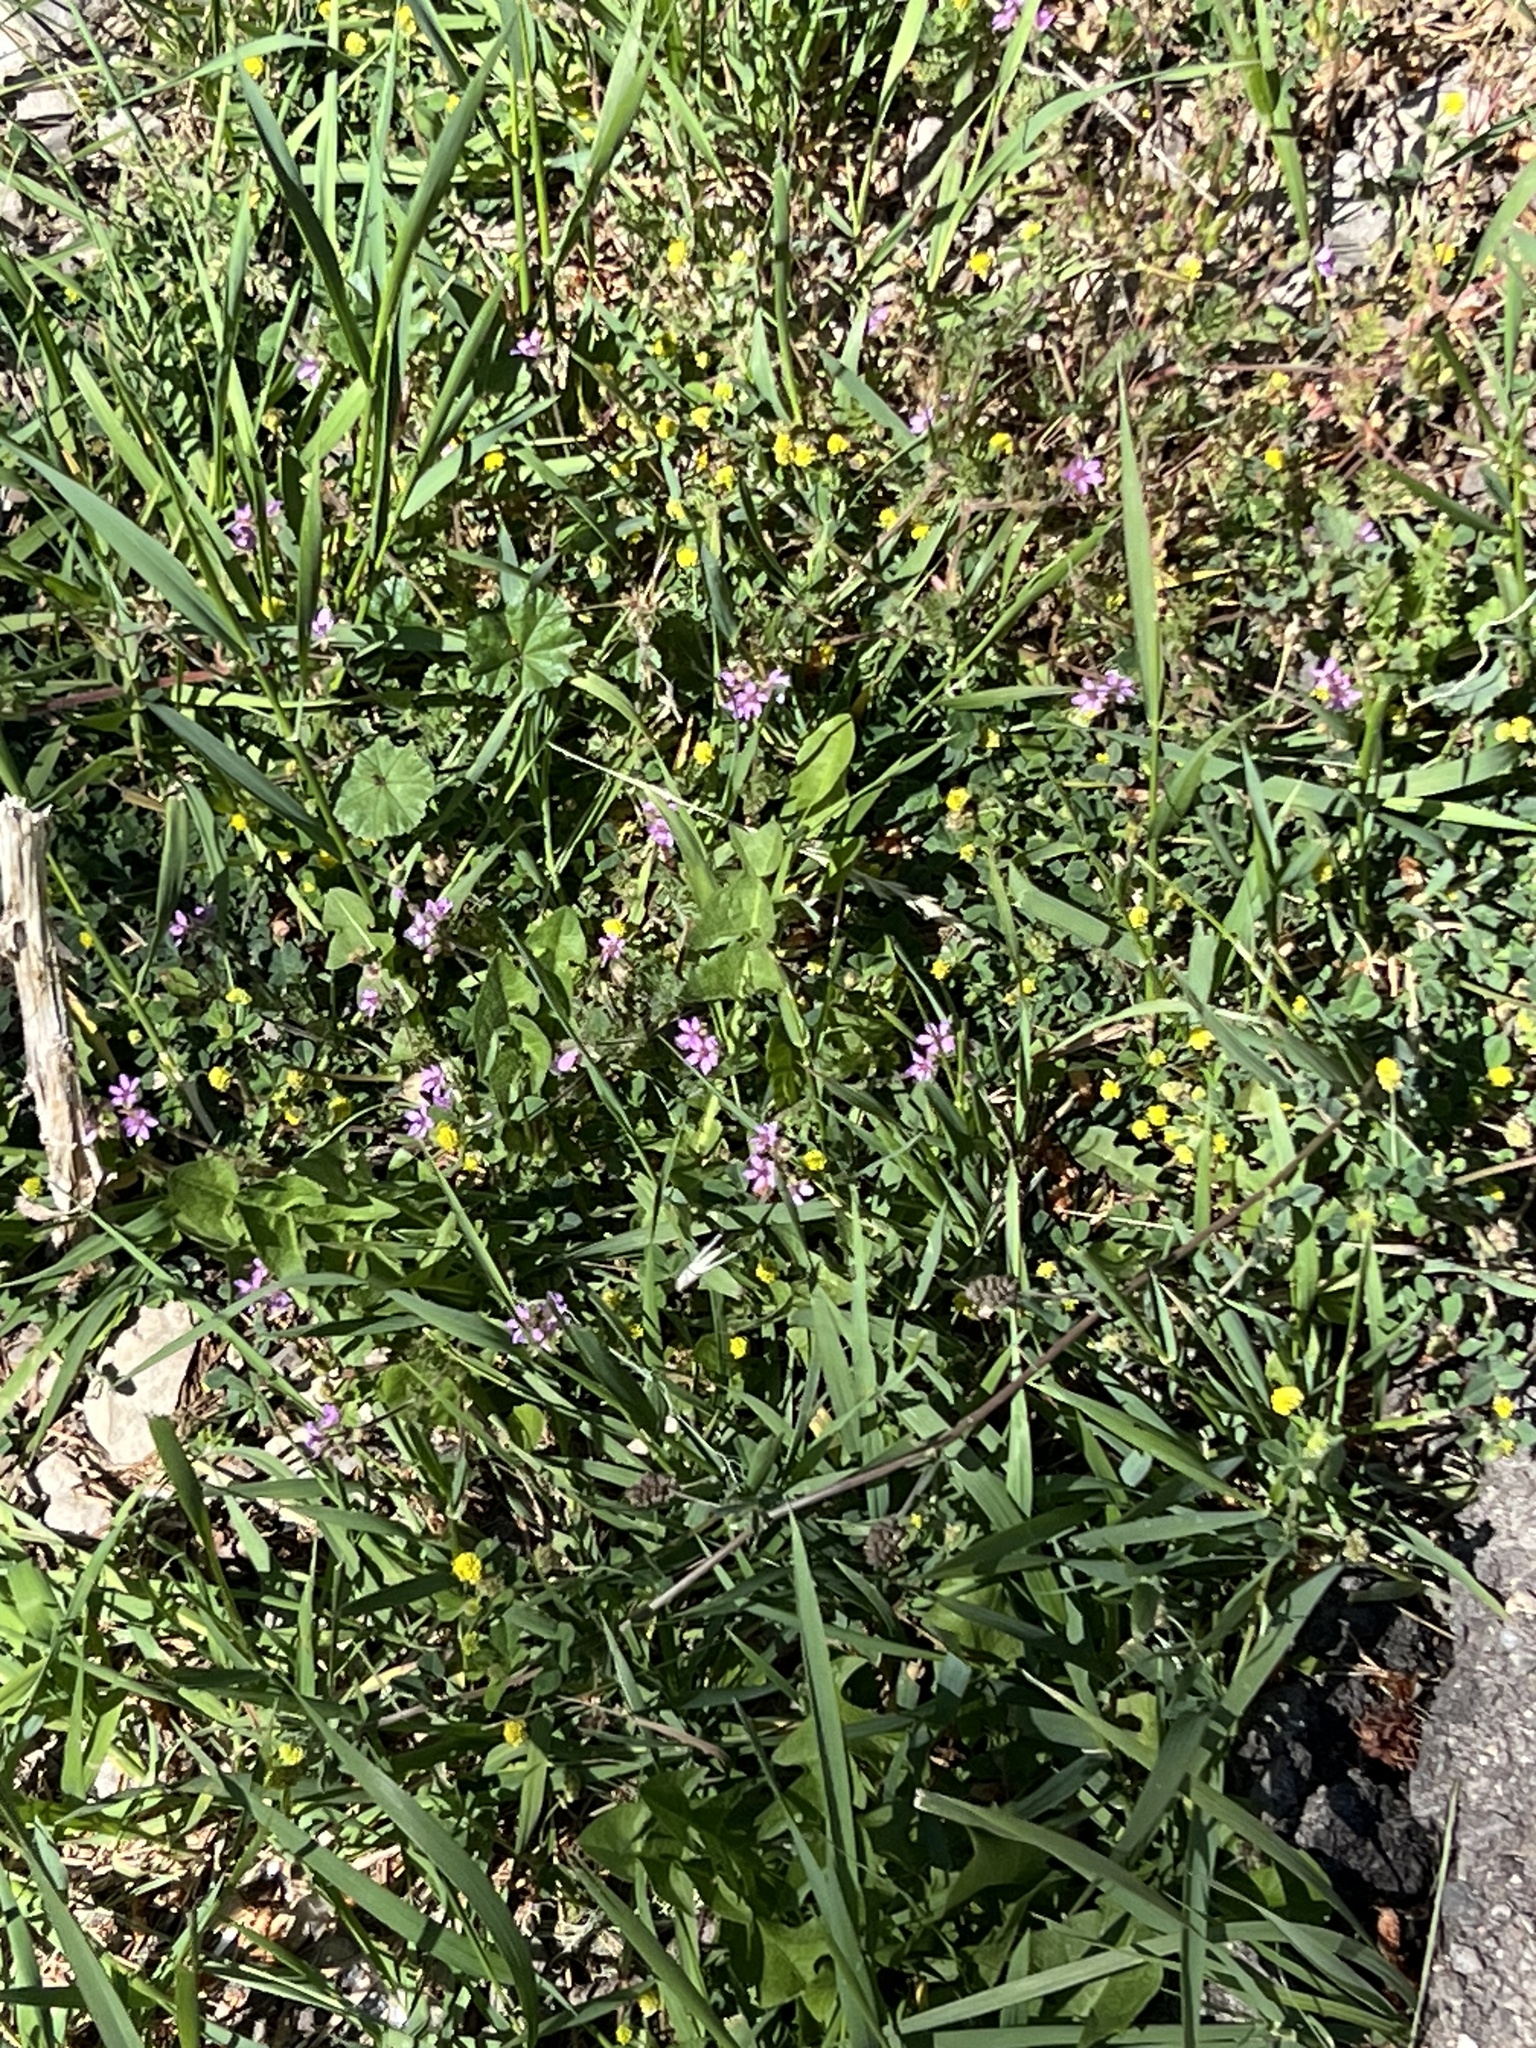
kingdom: Plantae
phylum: Tracheophyta
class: Magnoliopsida
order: Geraniales
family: Geraniaceae
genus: Erodium
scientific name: Erodium cicutarium
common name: Common stork's-bill
